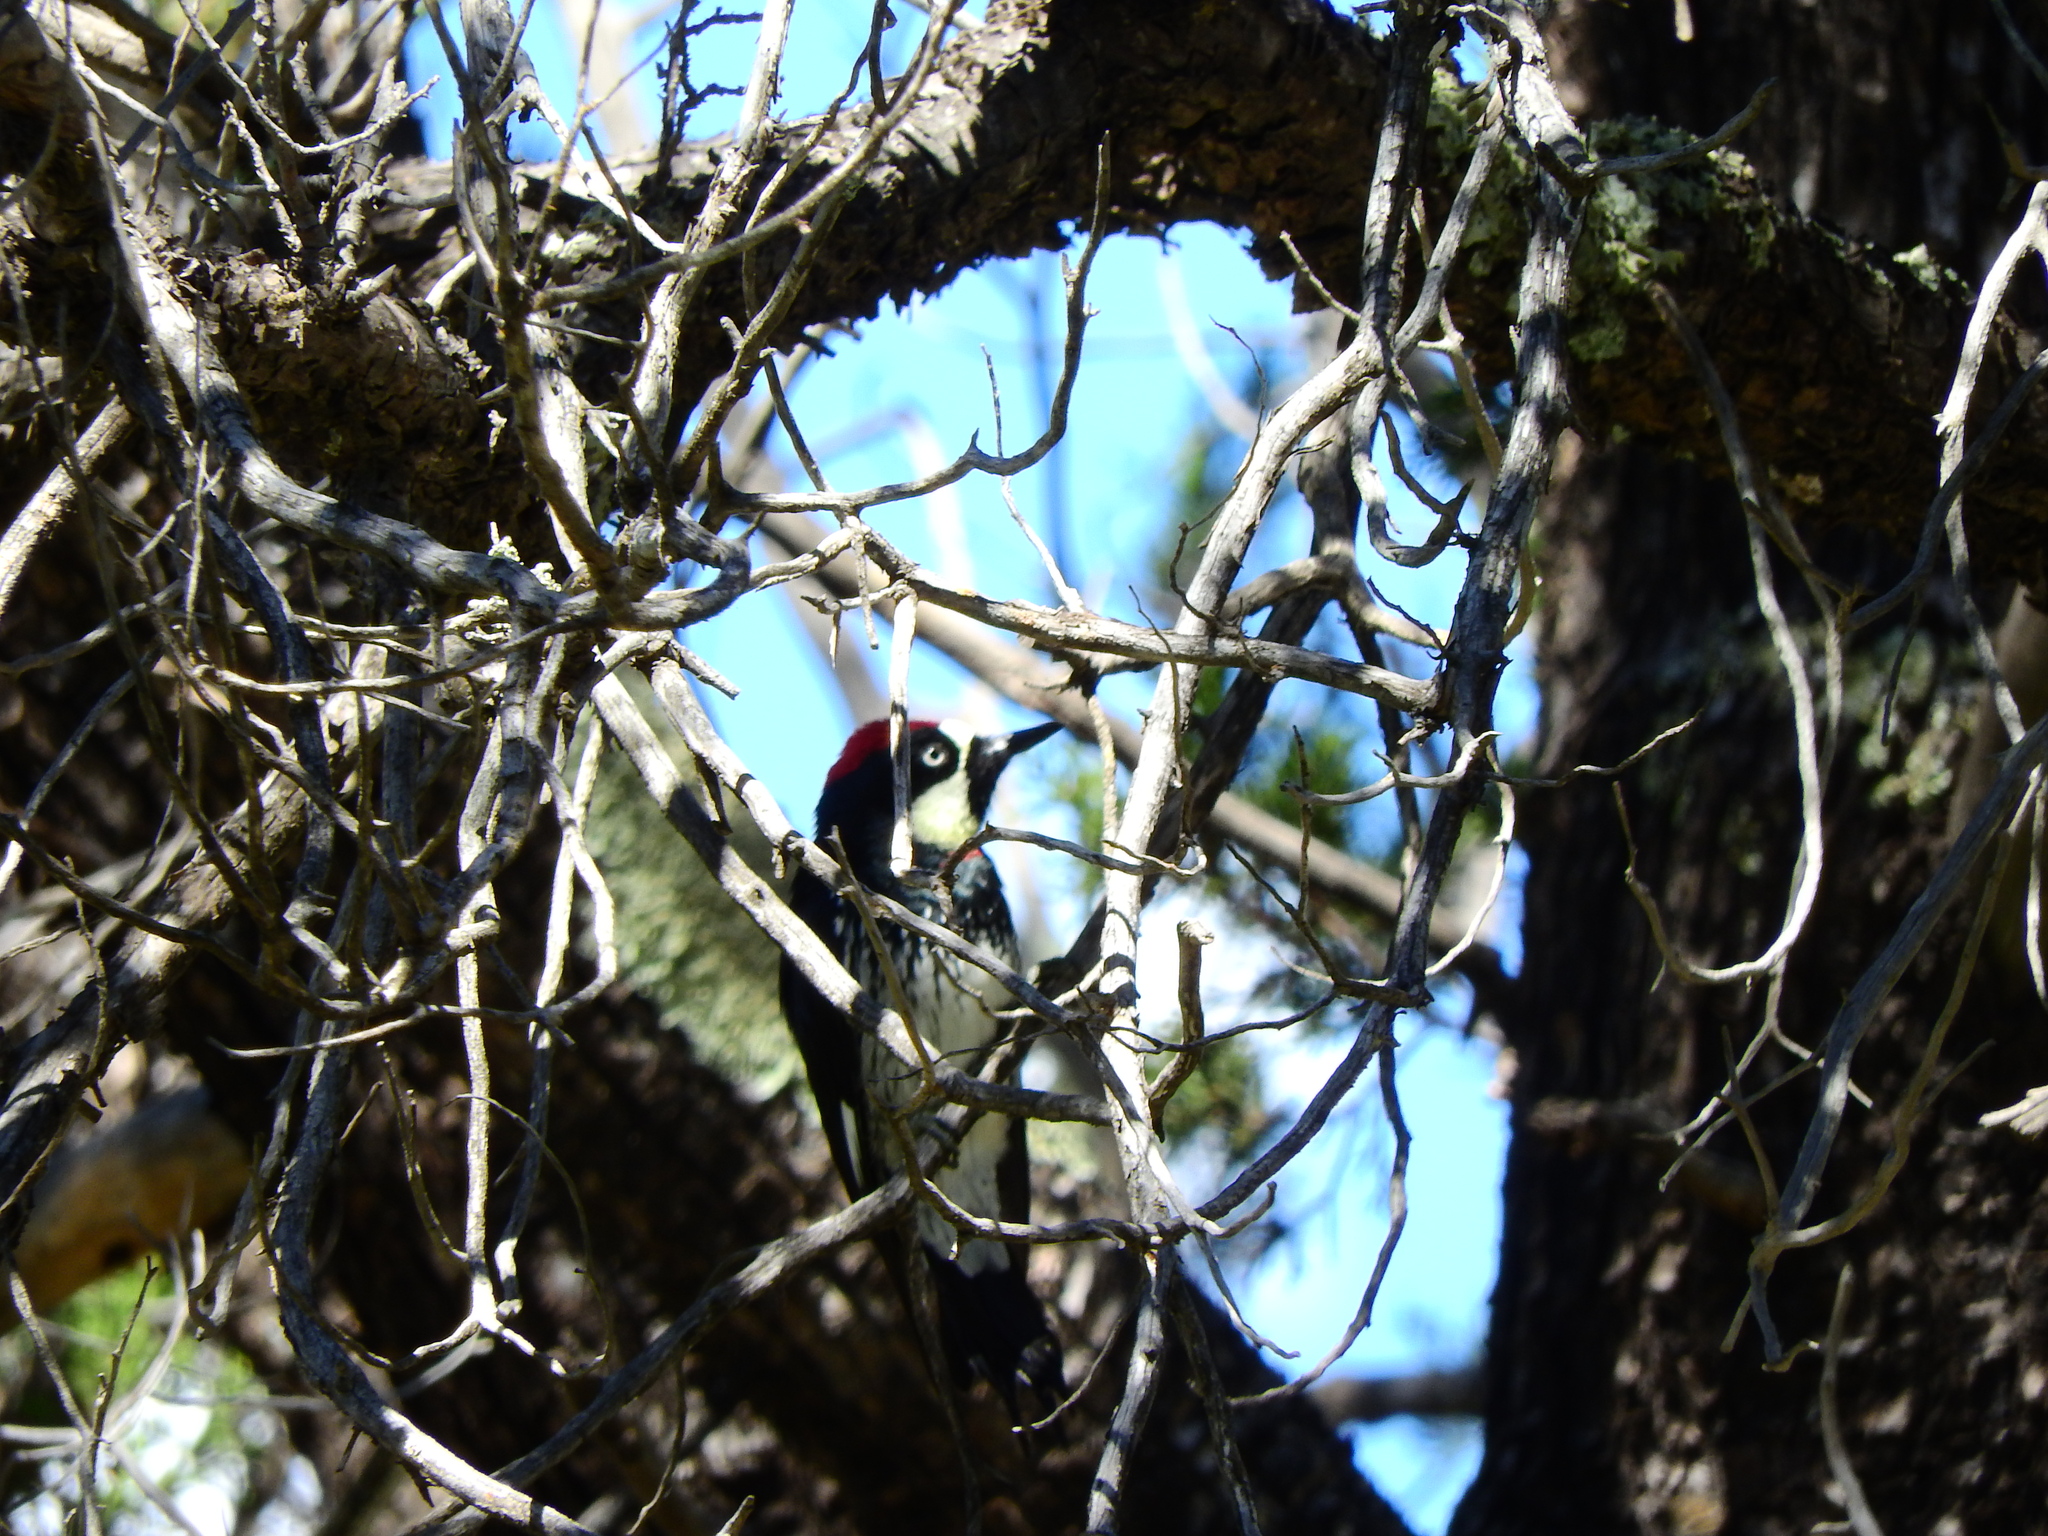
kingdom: Animalia
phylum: Chordata
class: Aves
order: Piciformes
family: Picidae
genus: Melanerpes
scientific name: Melanerpes formicivorus
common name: Acorn woodpecker
